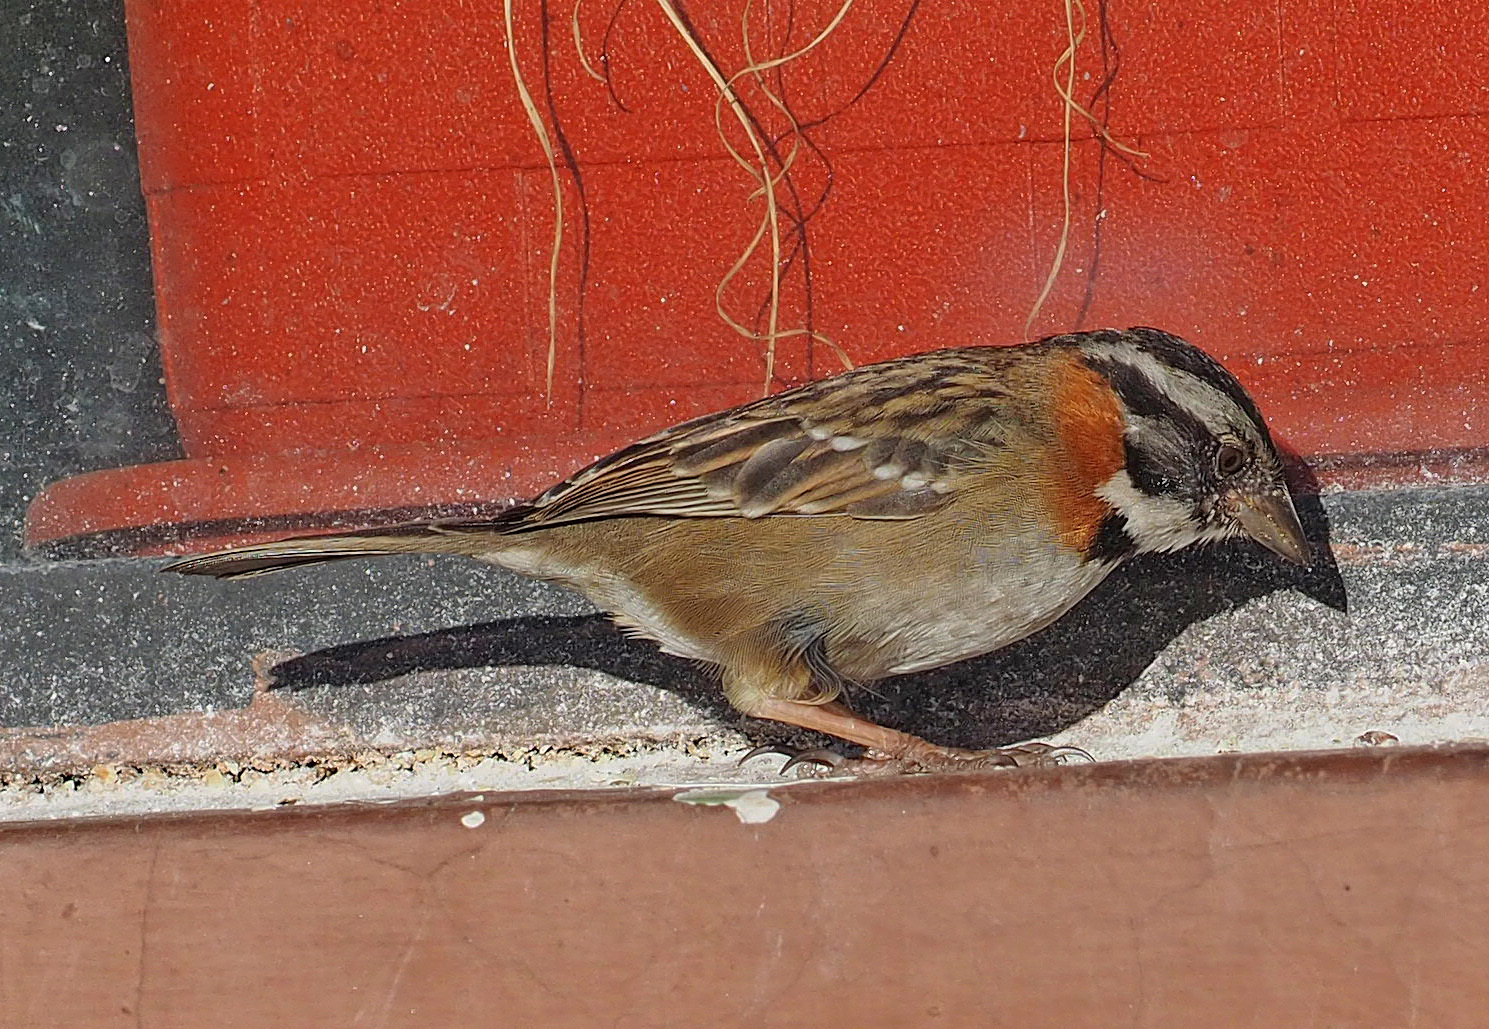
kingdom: Animalia
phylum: Chordata
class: Aves
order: Passeriformes
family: Passerellidae
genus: Zonotrichia
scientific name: Zonotrichia capensis
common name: Rufous-collared sparrow
